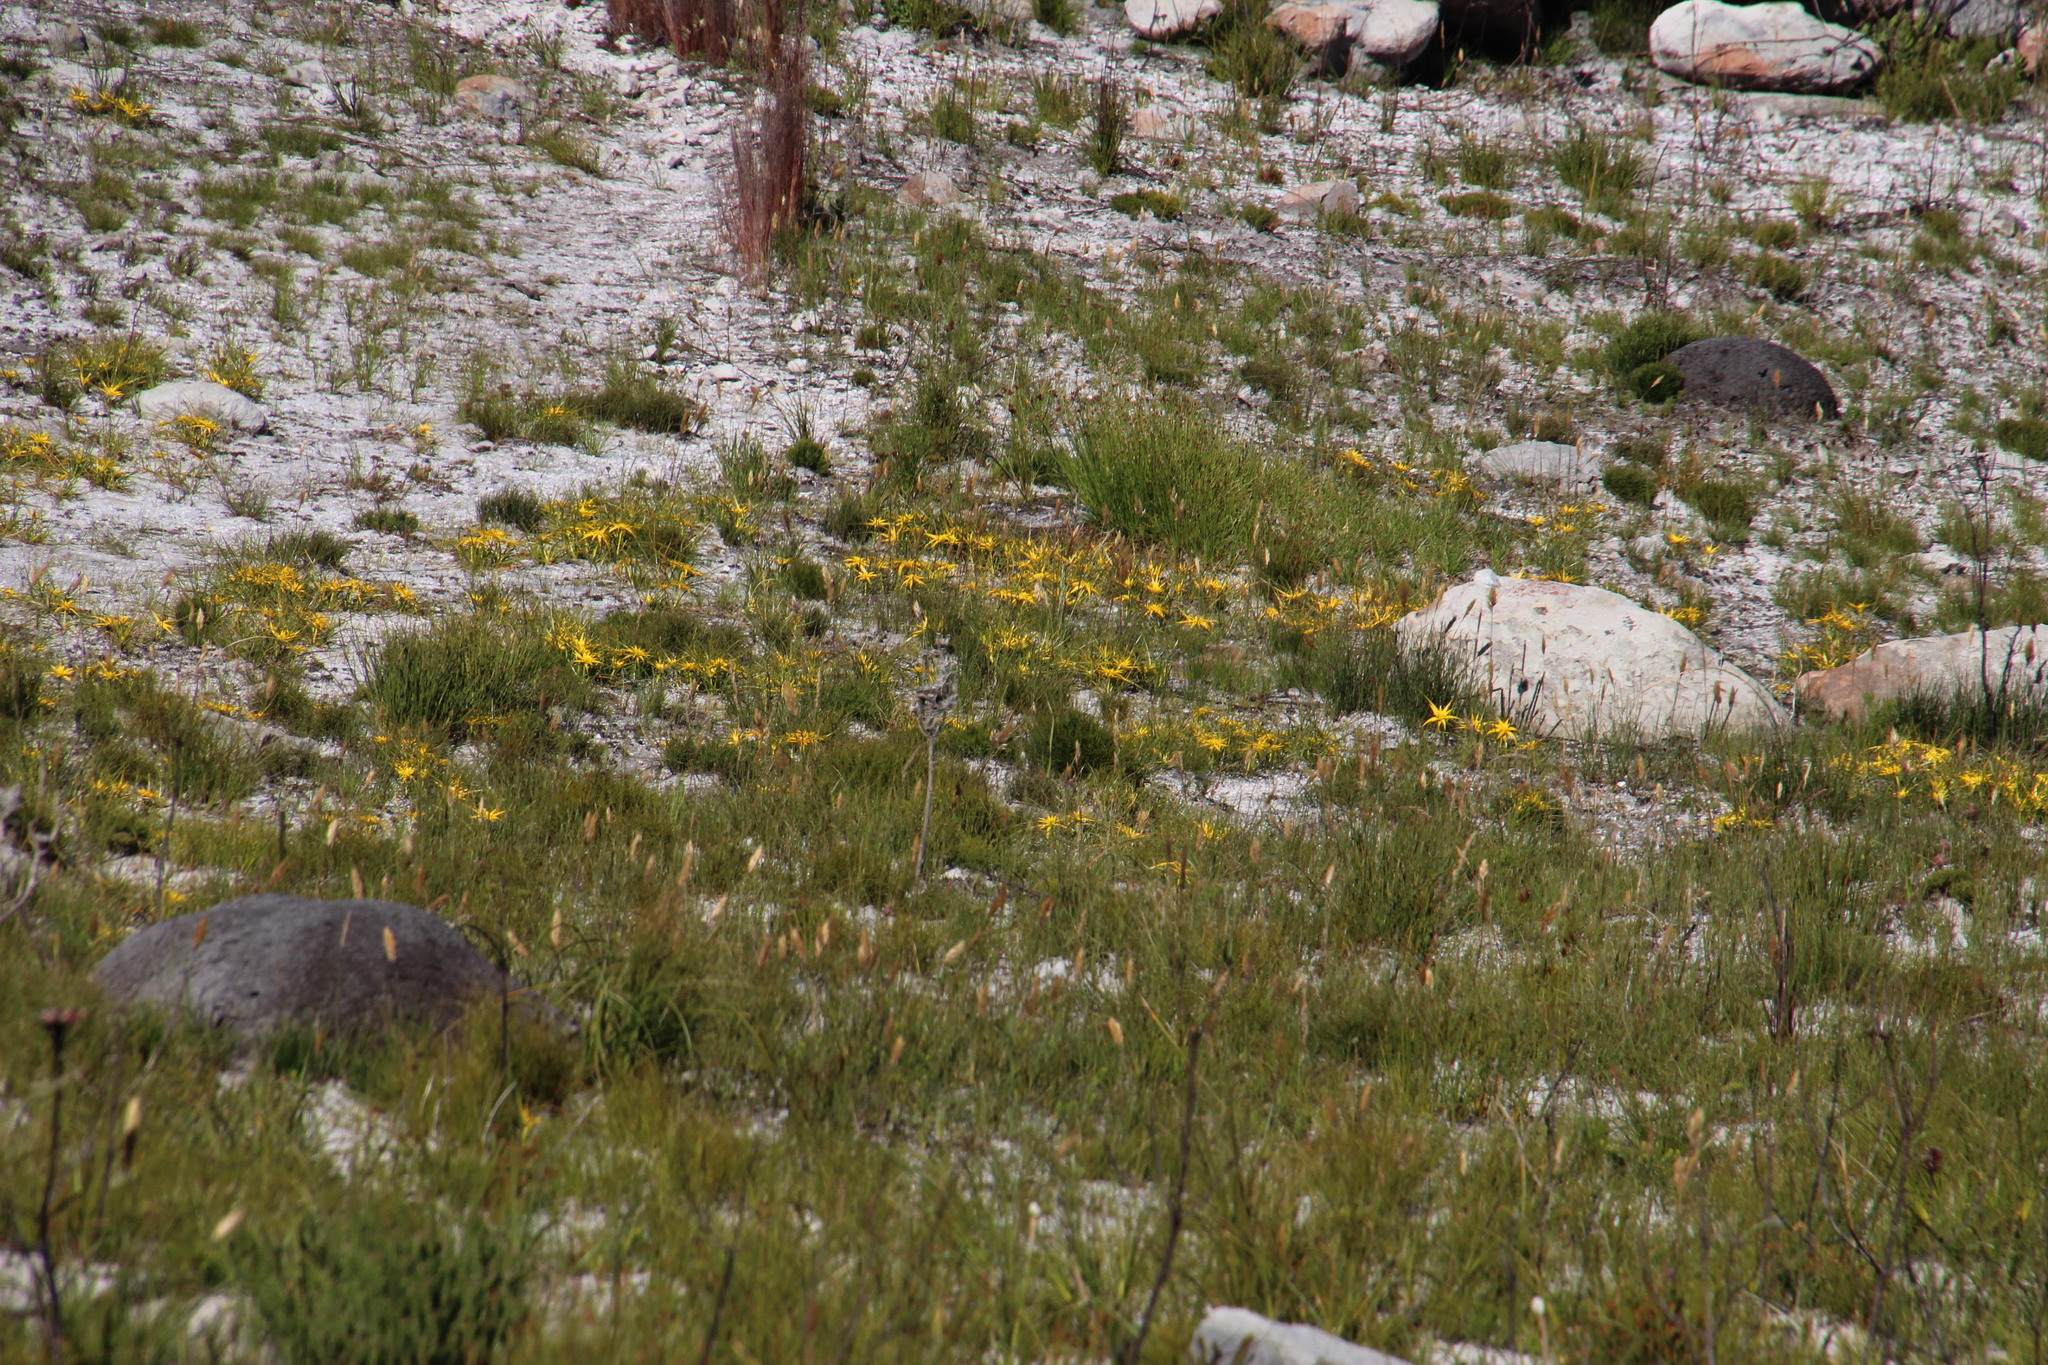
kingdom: Plantae
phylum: Tracheophyta
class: Liliopsida
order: Poales
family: Cyperaceae
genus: Ficinia
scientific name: Ficinia radiata
